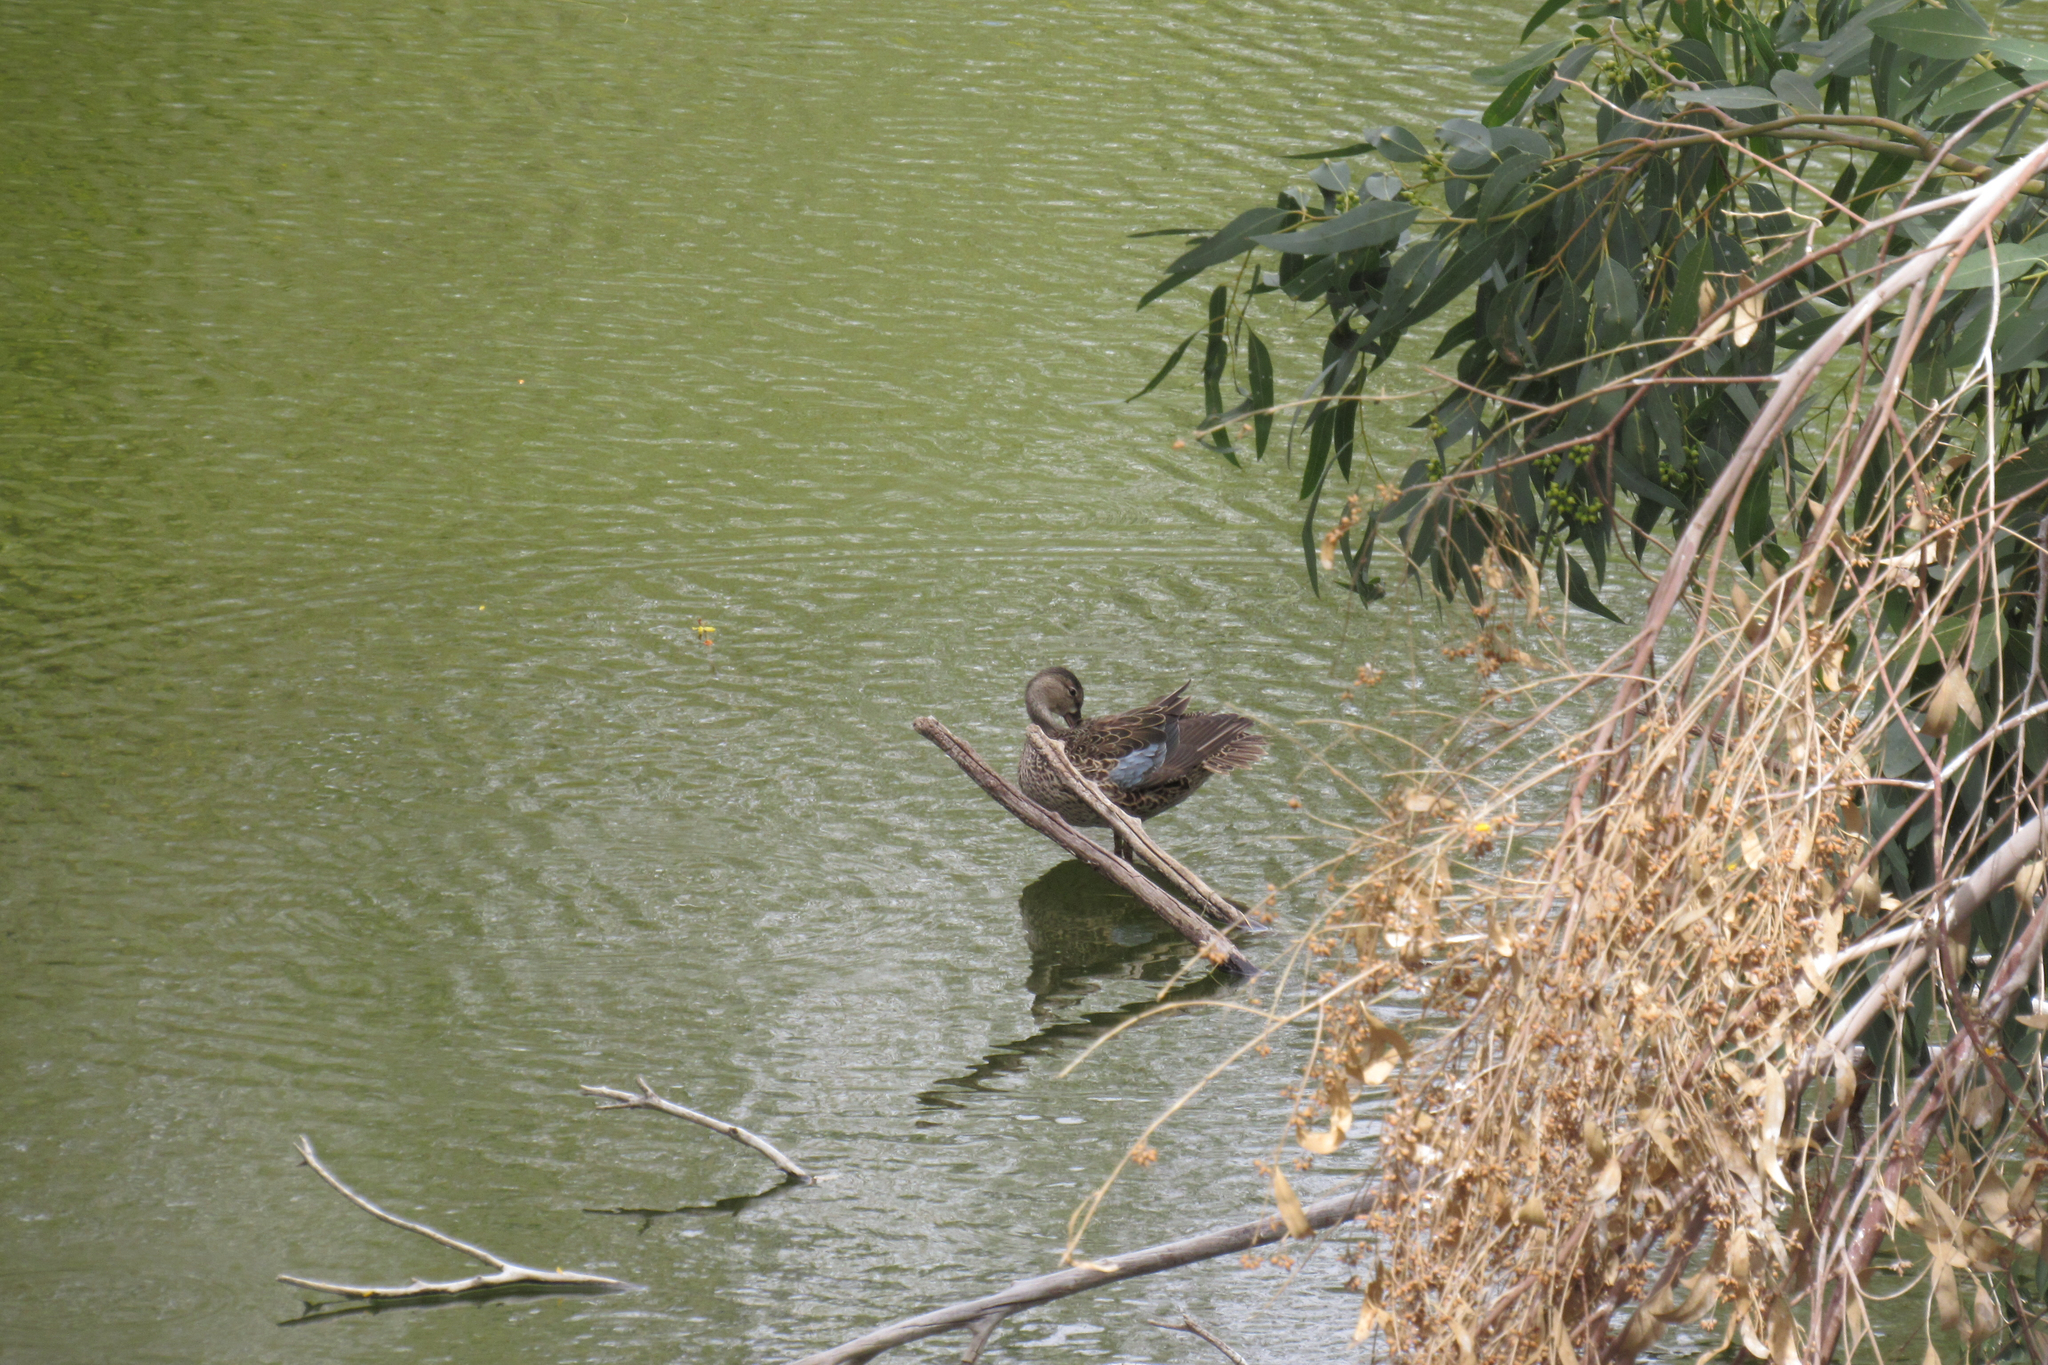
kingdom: Animalia
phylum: Chordata
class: Aves
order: Anseriformes
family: Anatidae
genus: Spatula
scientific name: Spatula discors
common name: Blue-winged teal
